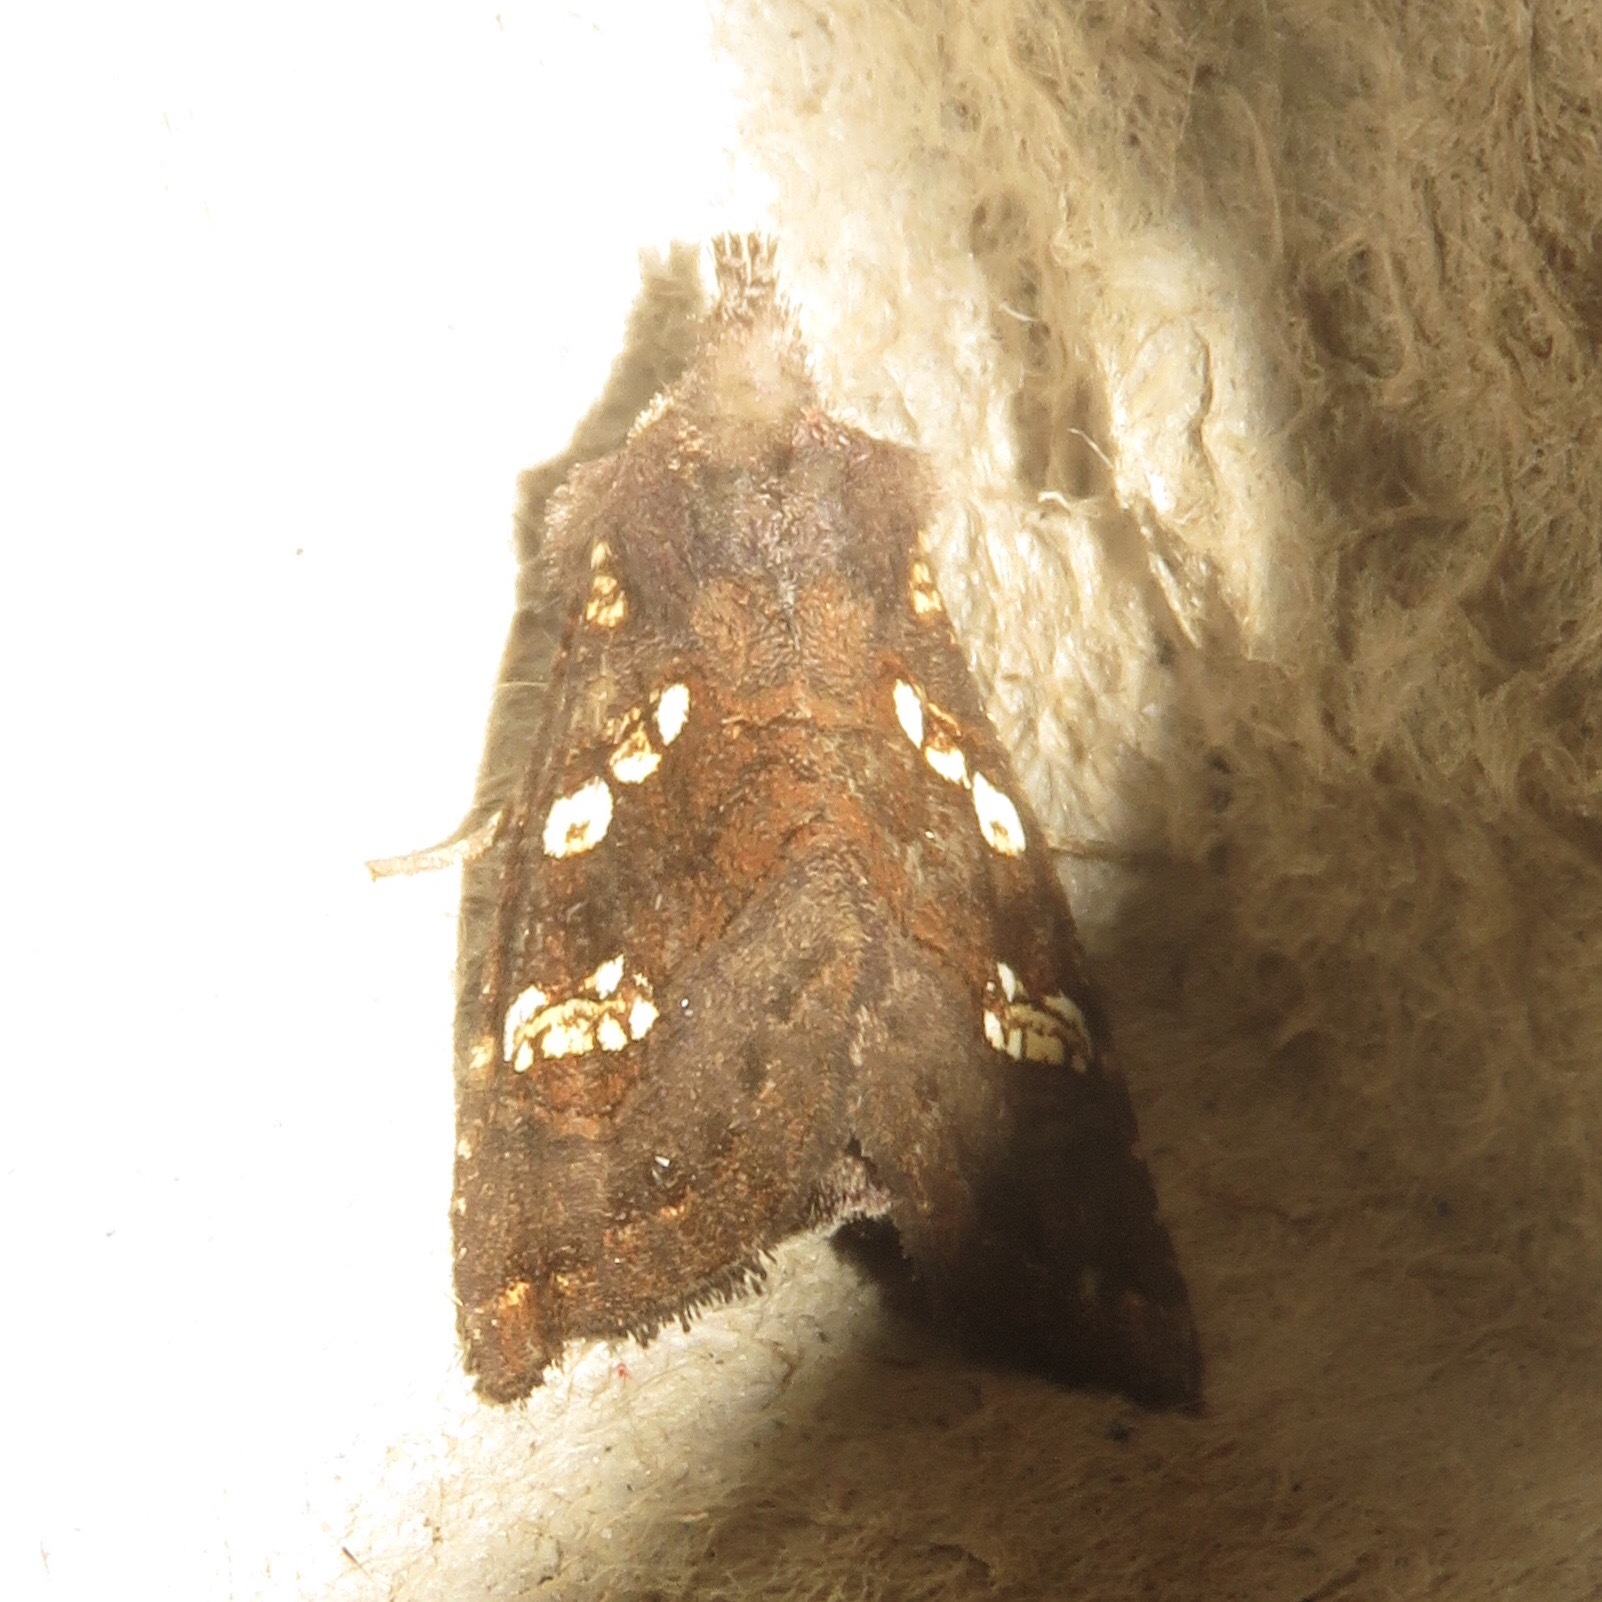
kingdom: Animalia
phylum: Arthropoda
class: Insecta
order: Lepidoptera
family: Noctuidae
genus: Papaipema
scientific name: Papaipema unimoda
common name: Meadow rue borer moth
